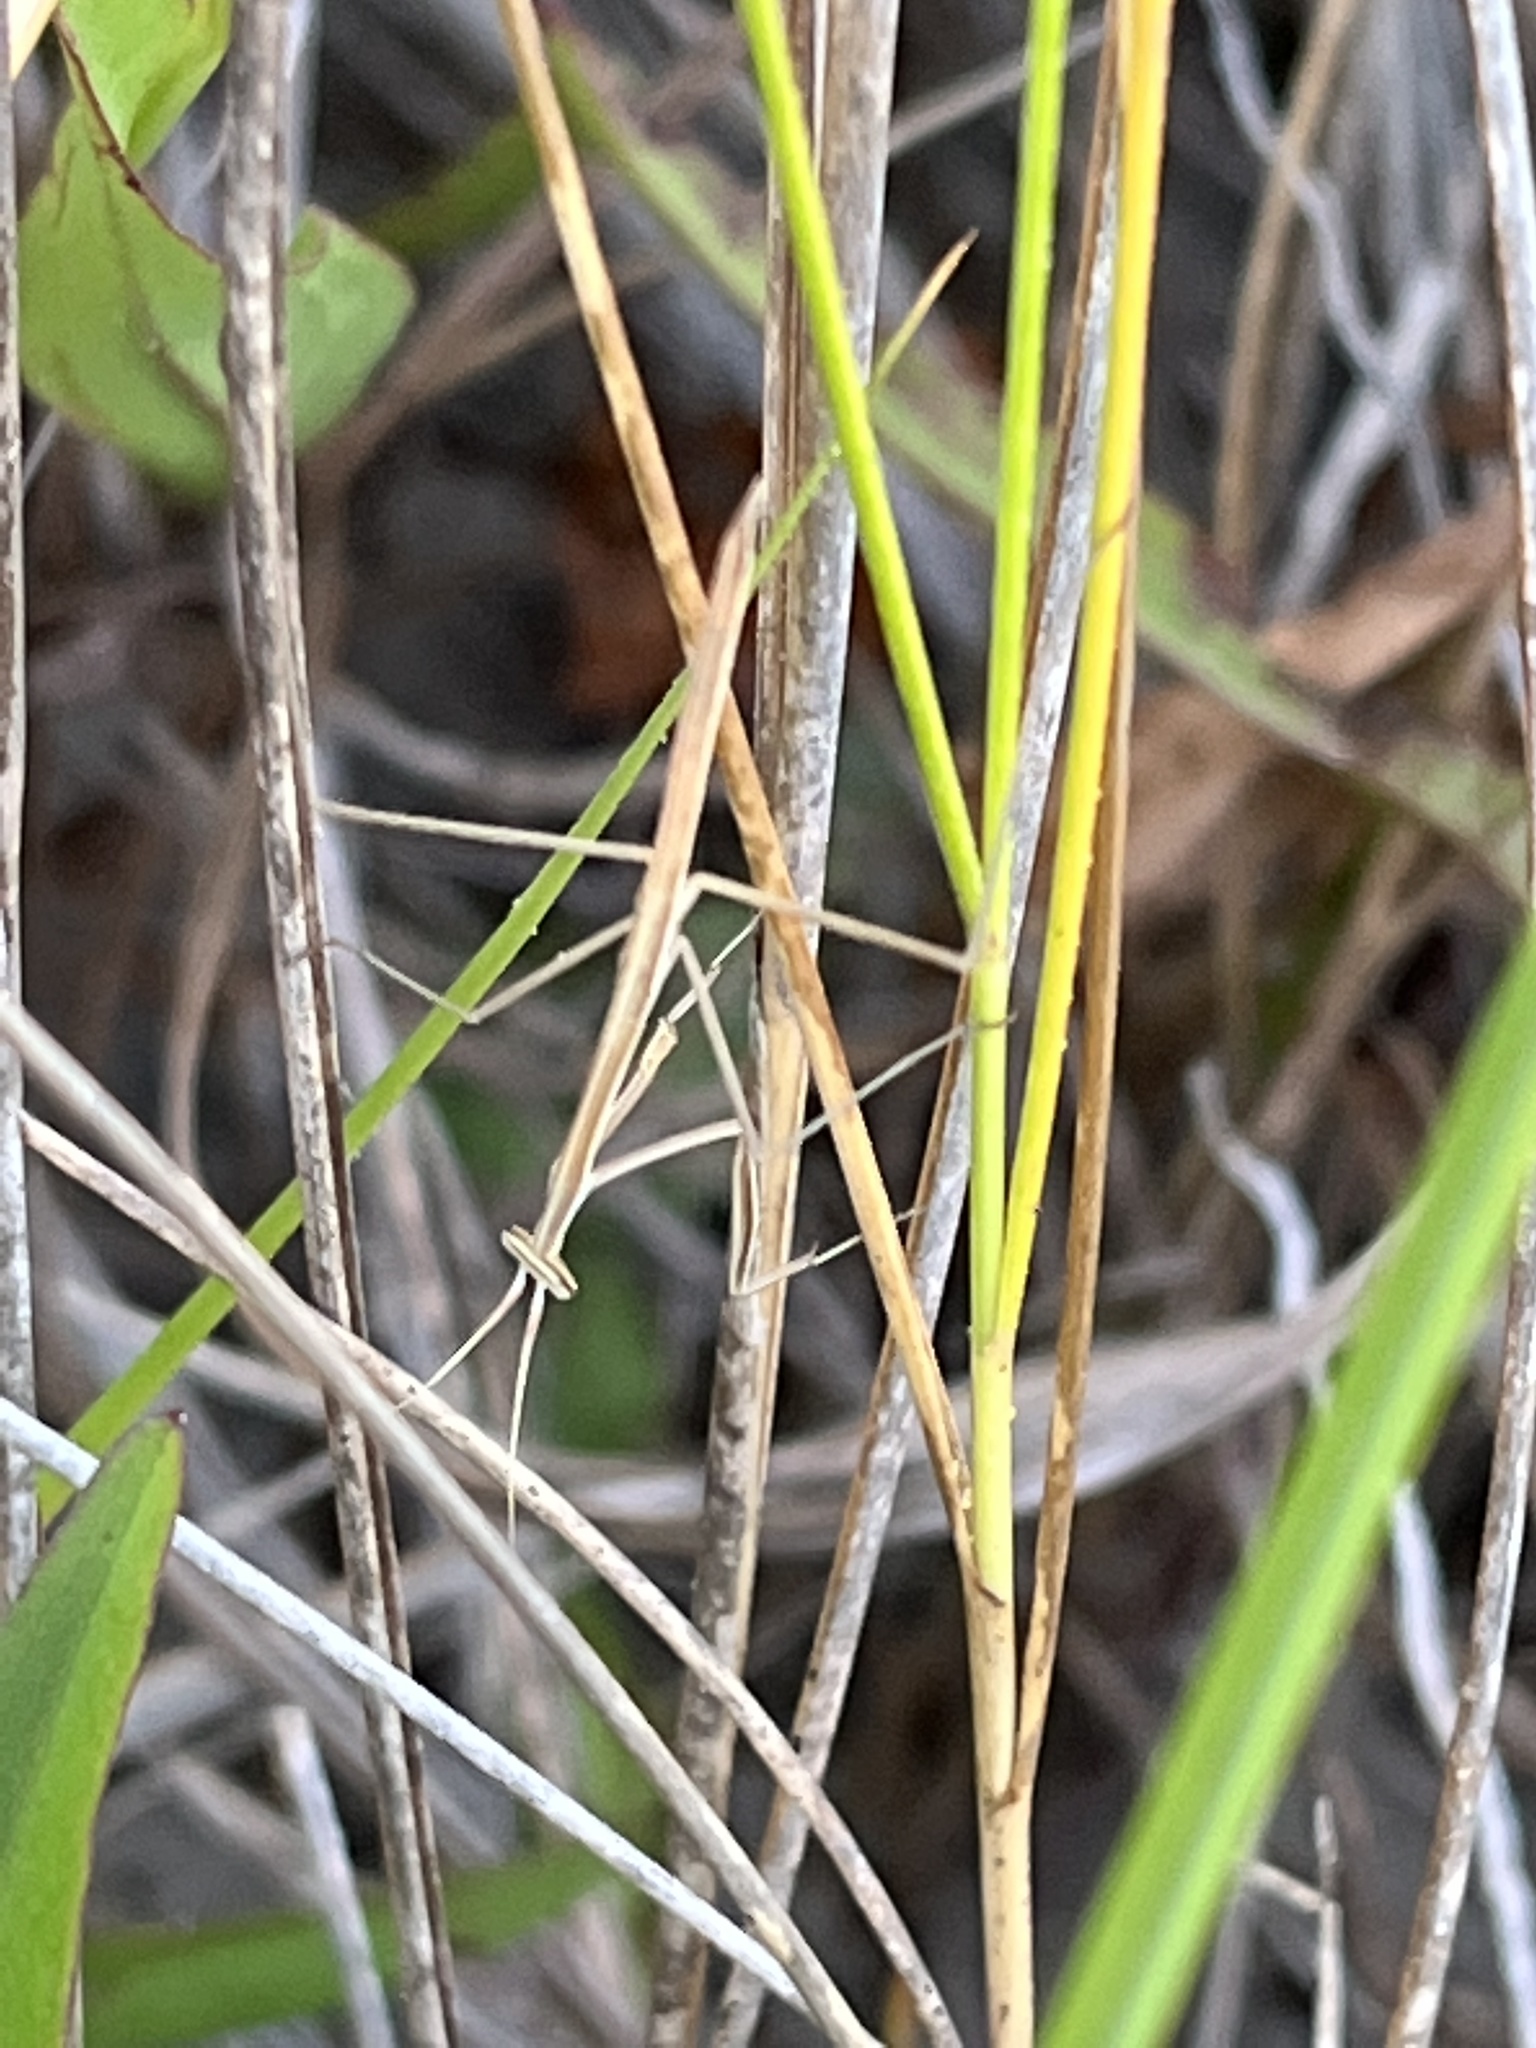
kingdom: Animalia
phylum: Arthropoda
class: Insecta
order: Mantodea
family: Coptopterygidae
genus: Brunneria
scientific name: Brunneria borealis
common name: Mantis
